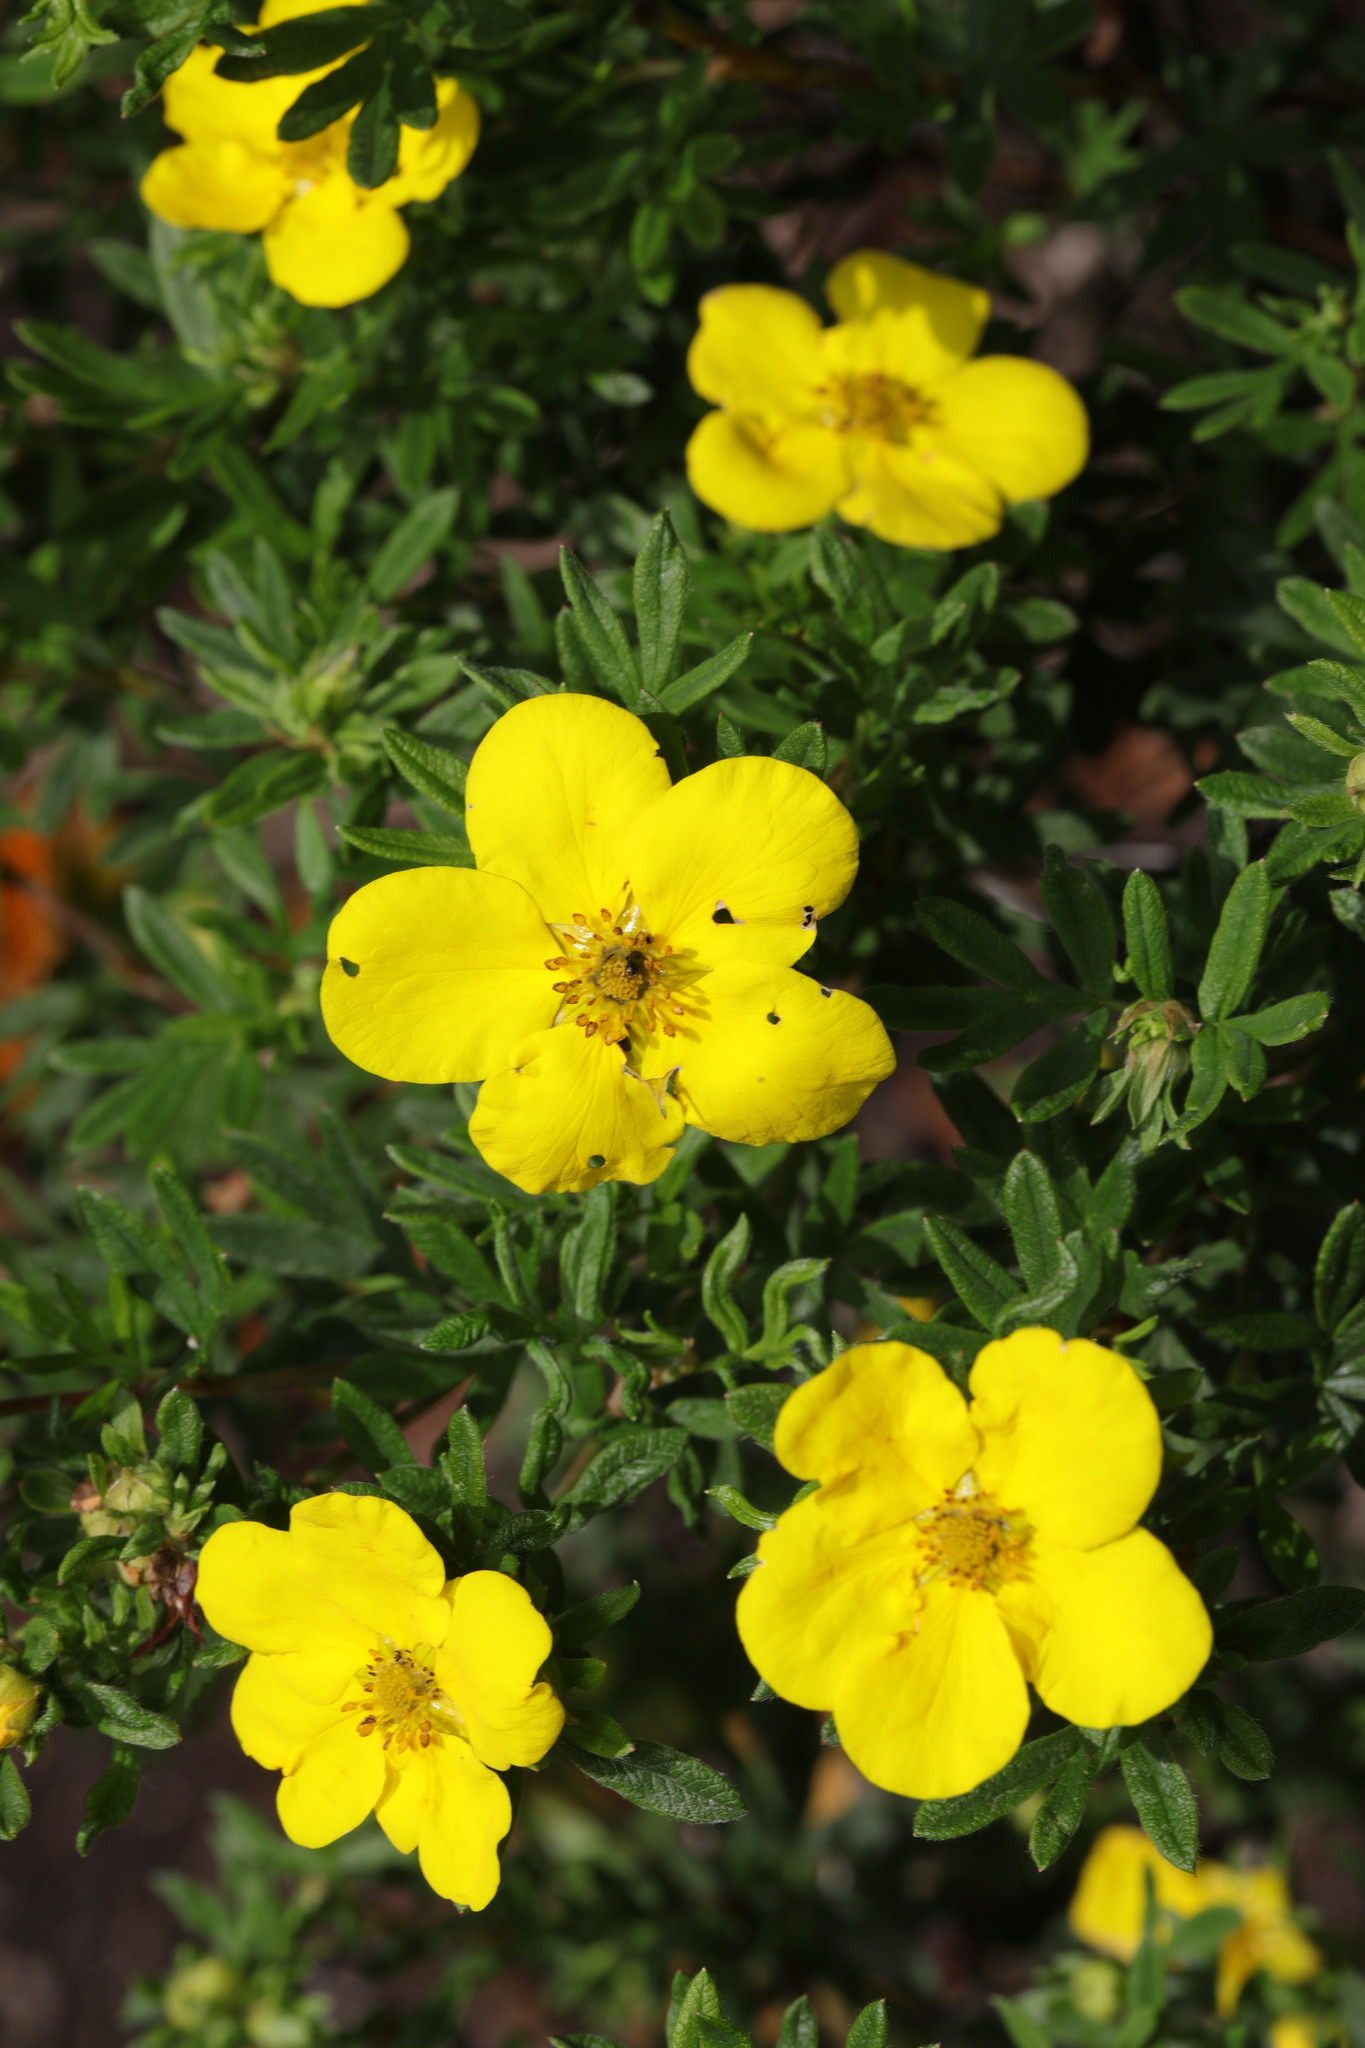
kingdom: Plantae
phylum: Tracheophyta
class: Magnoliopsida
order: Rosales
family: Rosaceae
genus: Dasiphora
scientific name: Dasiphora fruticosa
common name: Shrubby cinquefoil
